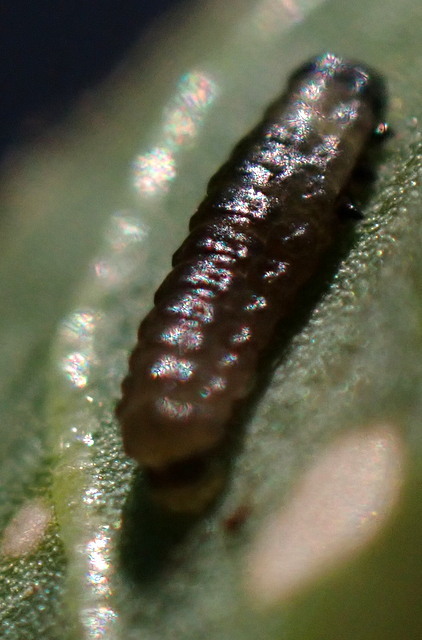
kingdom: Animalia
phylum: Arthropoda
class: Insecta
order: Coleoptera
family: Chrysomelidae
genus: Agasicles
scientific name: Agasicles hygrophila
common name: Alligatorweed flea beetle
